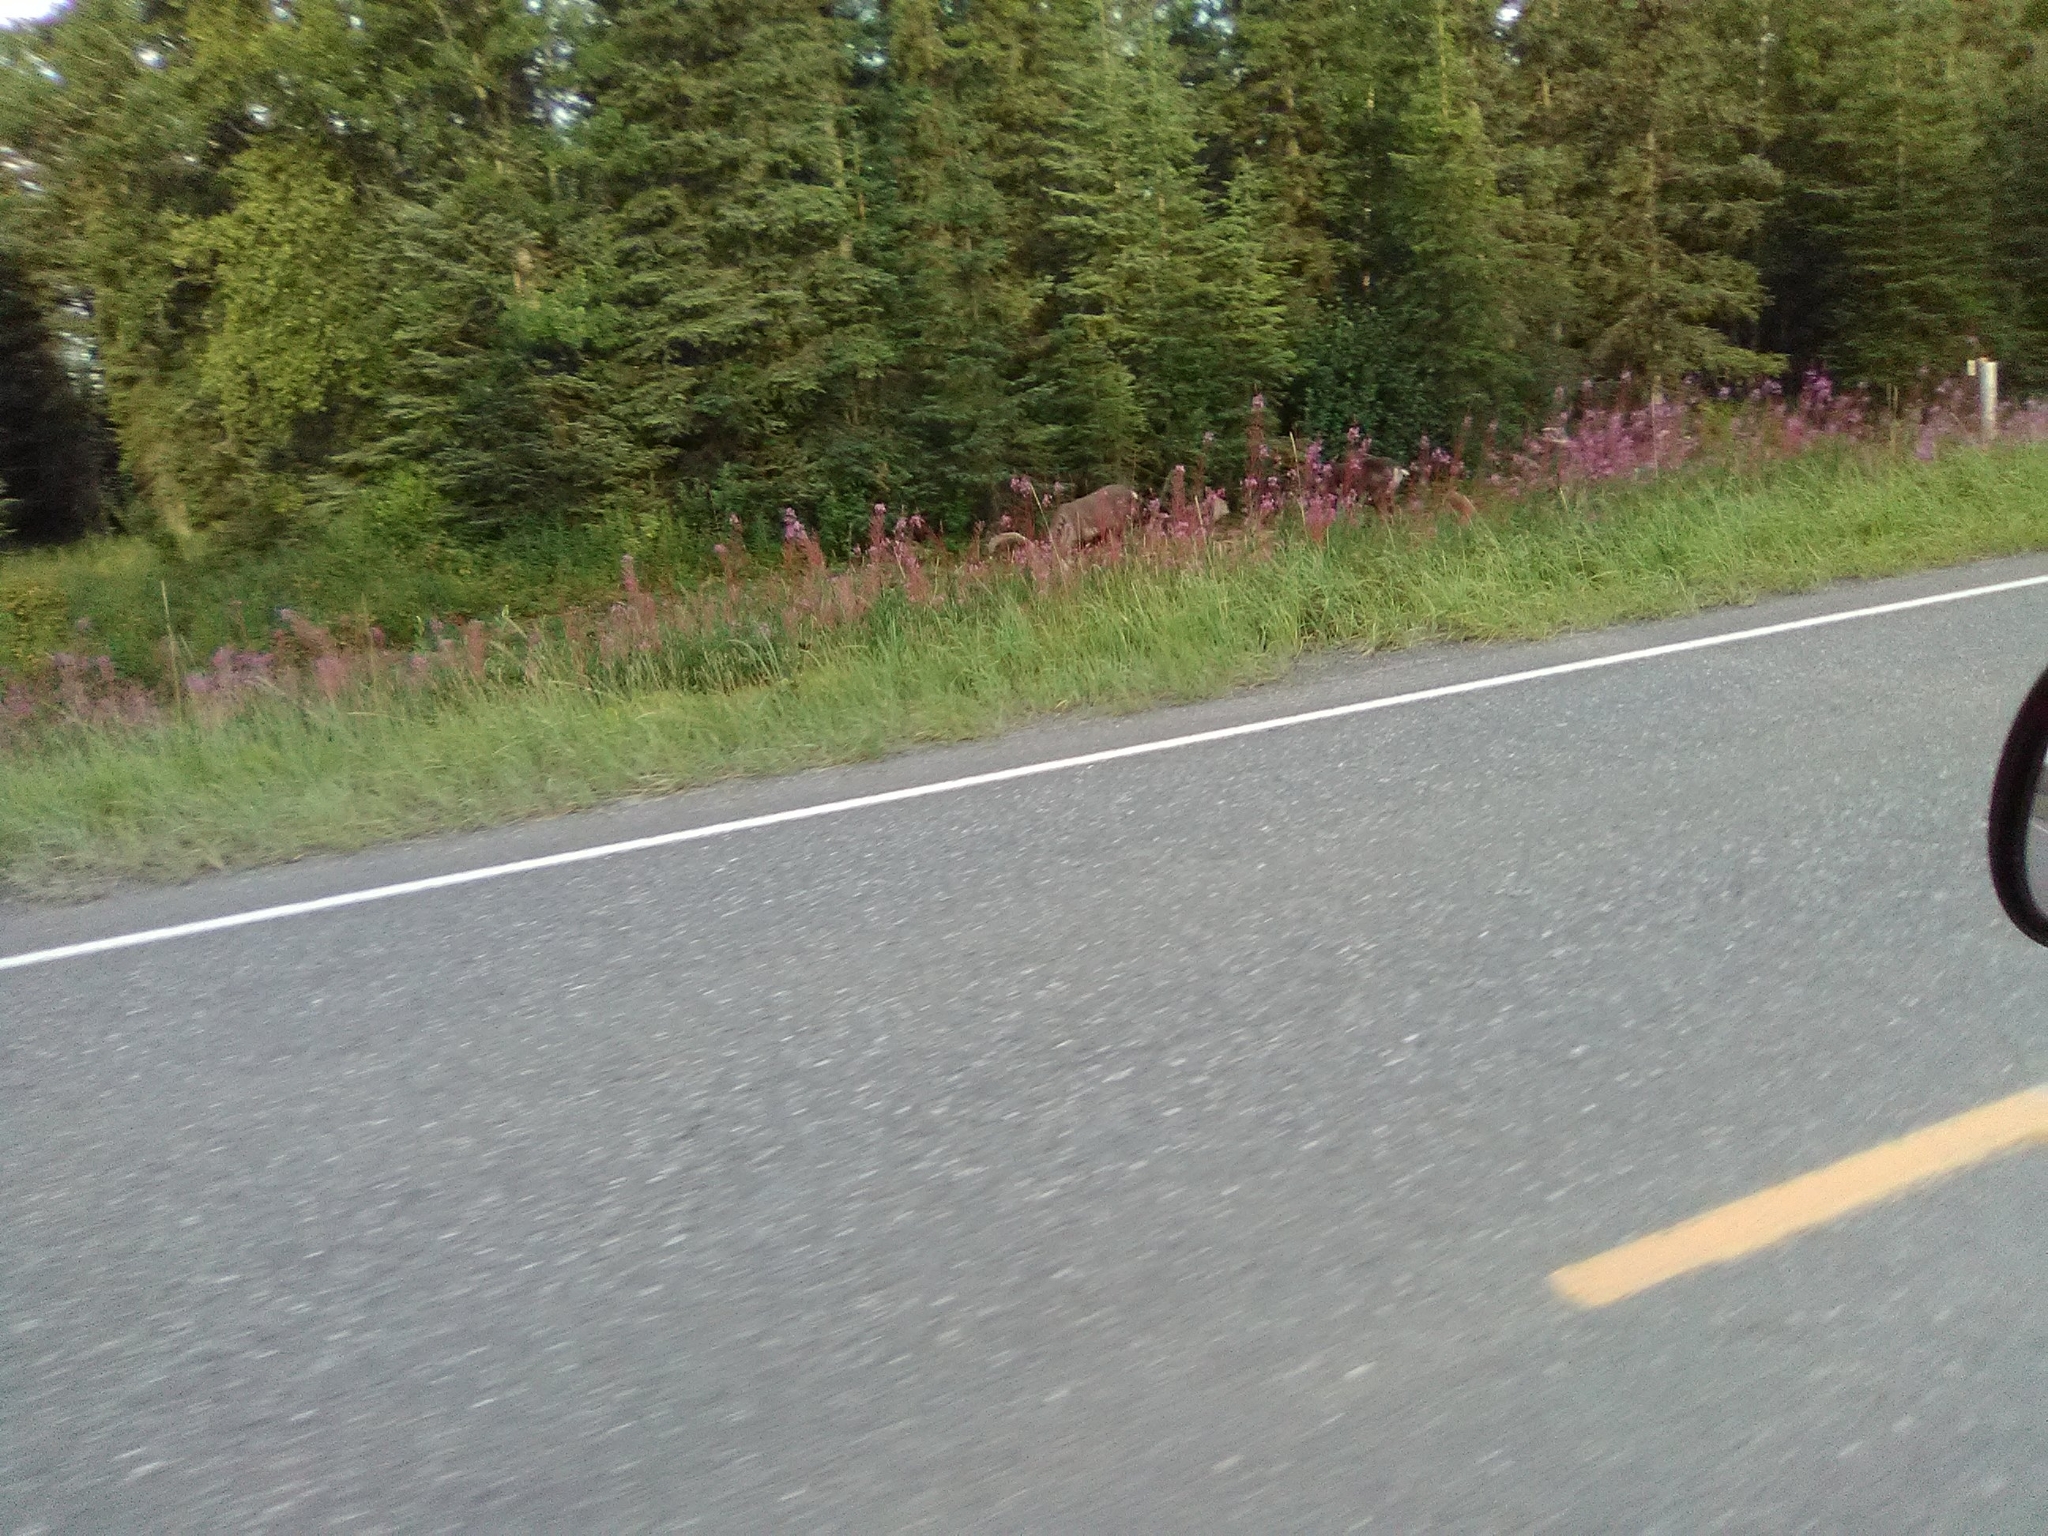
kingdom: Animalia
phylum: Chordata
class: Mammalia
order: Artiodactyla
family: Cervidae
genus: Rangifer
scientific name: Rangifer tarandus
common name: Reindeer
